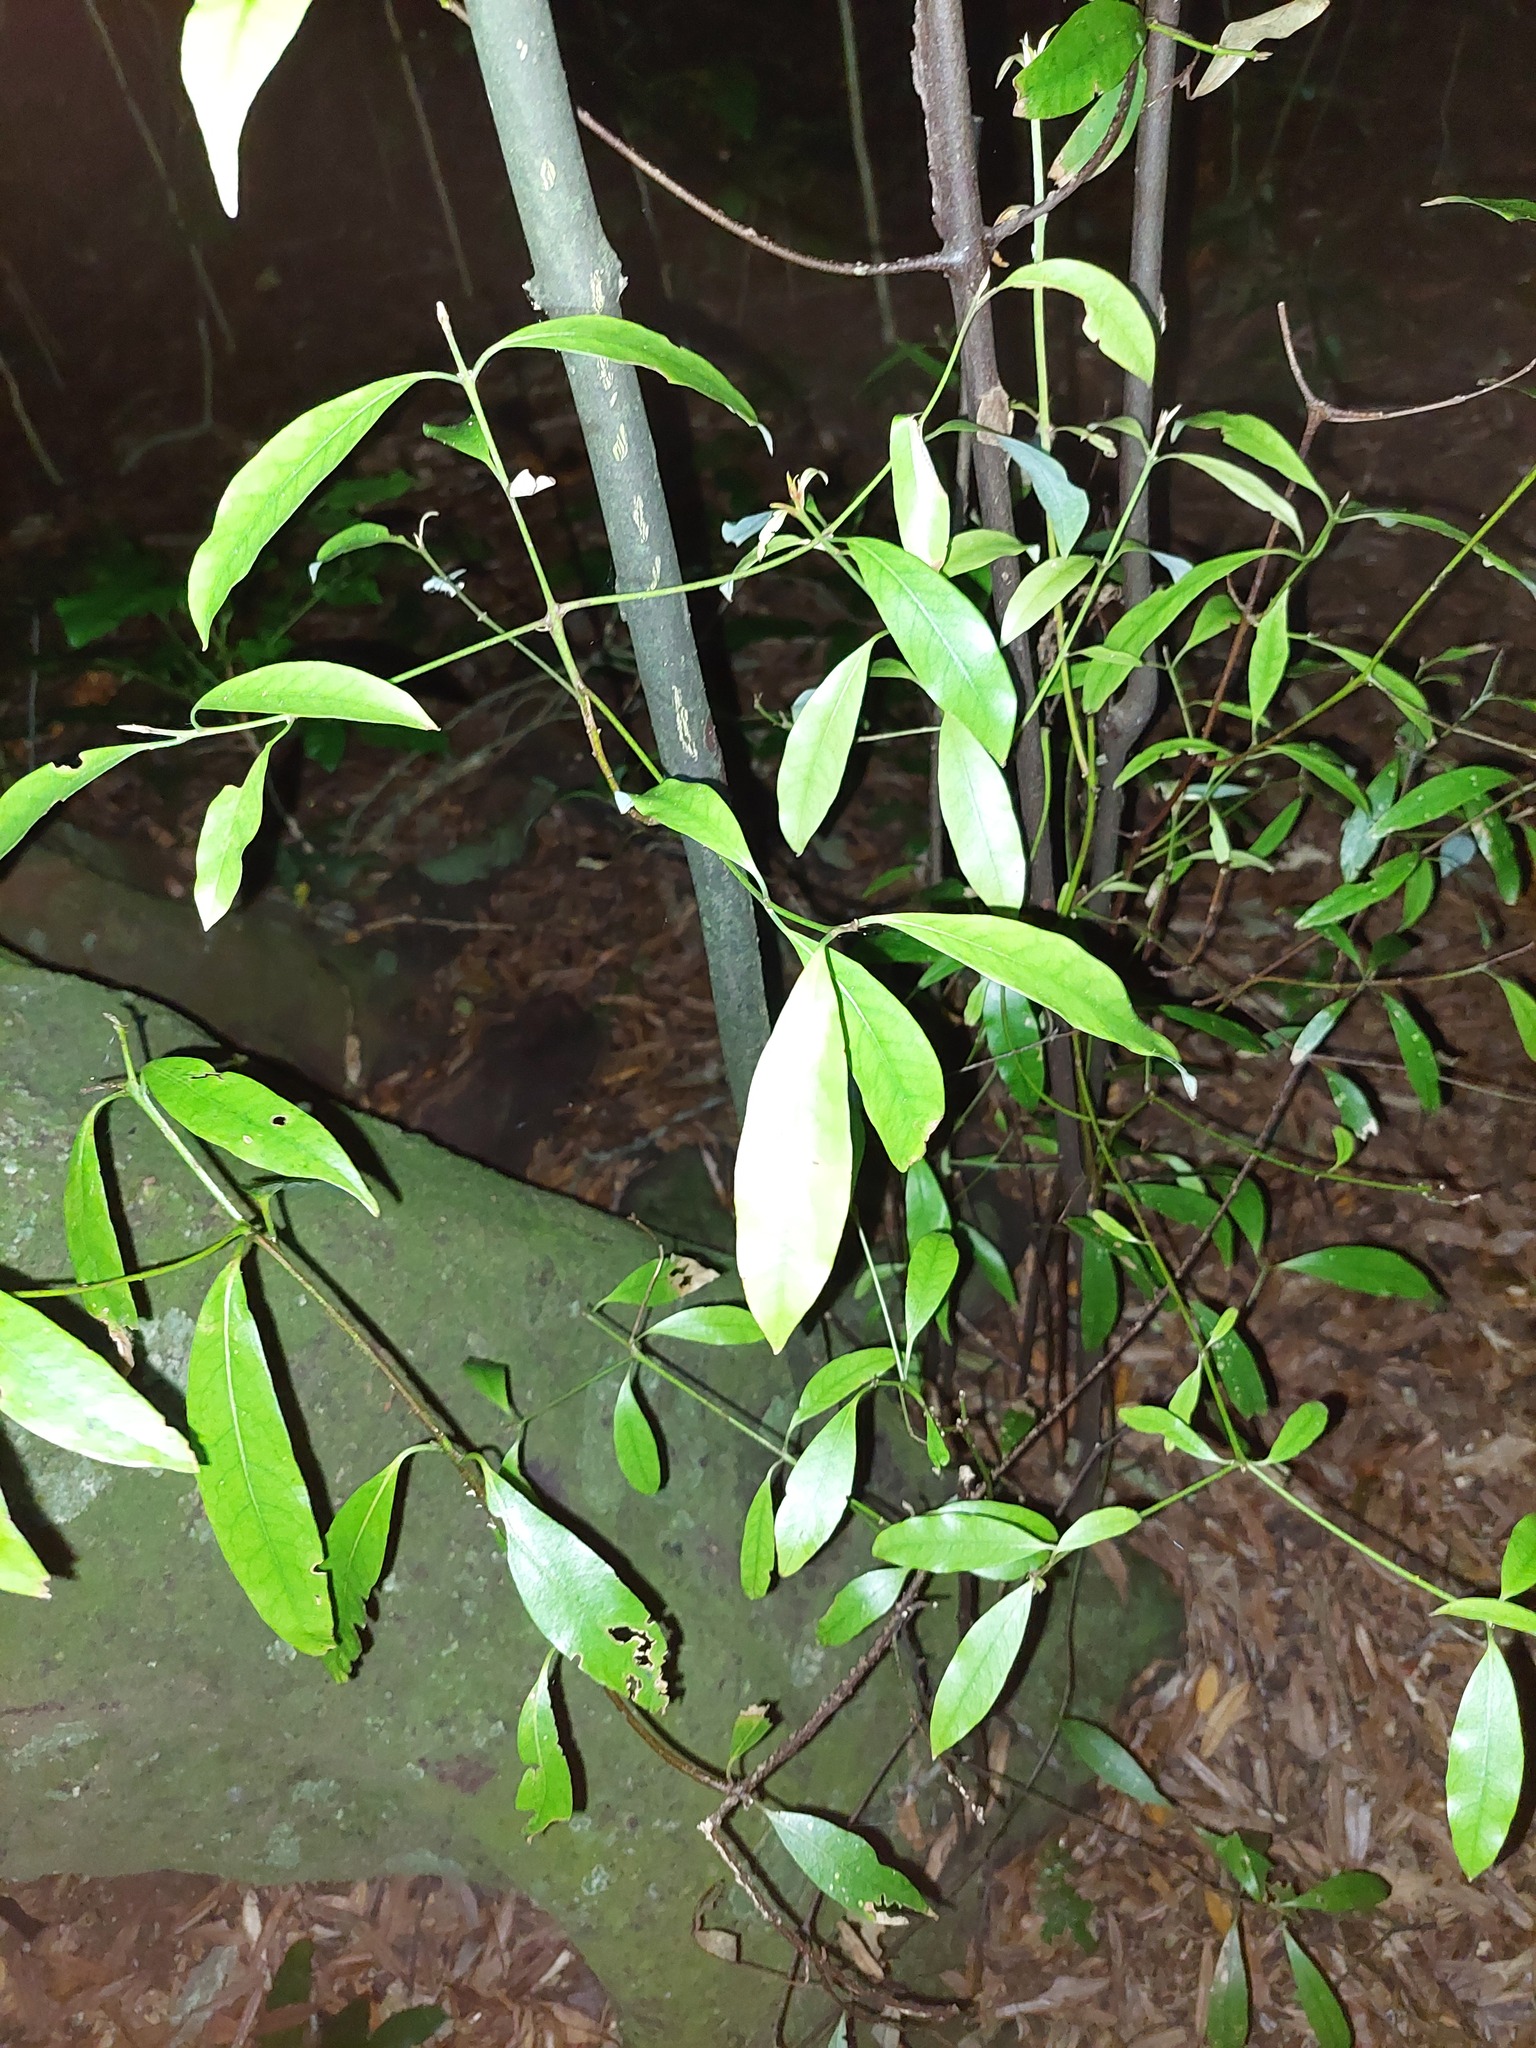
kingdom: Plantae
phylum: Tracheophyta
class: Magnoliopsida
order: Laurales
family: Lauraceae
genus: Beilschmiedia
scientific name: Beilschmiedia tawa
